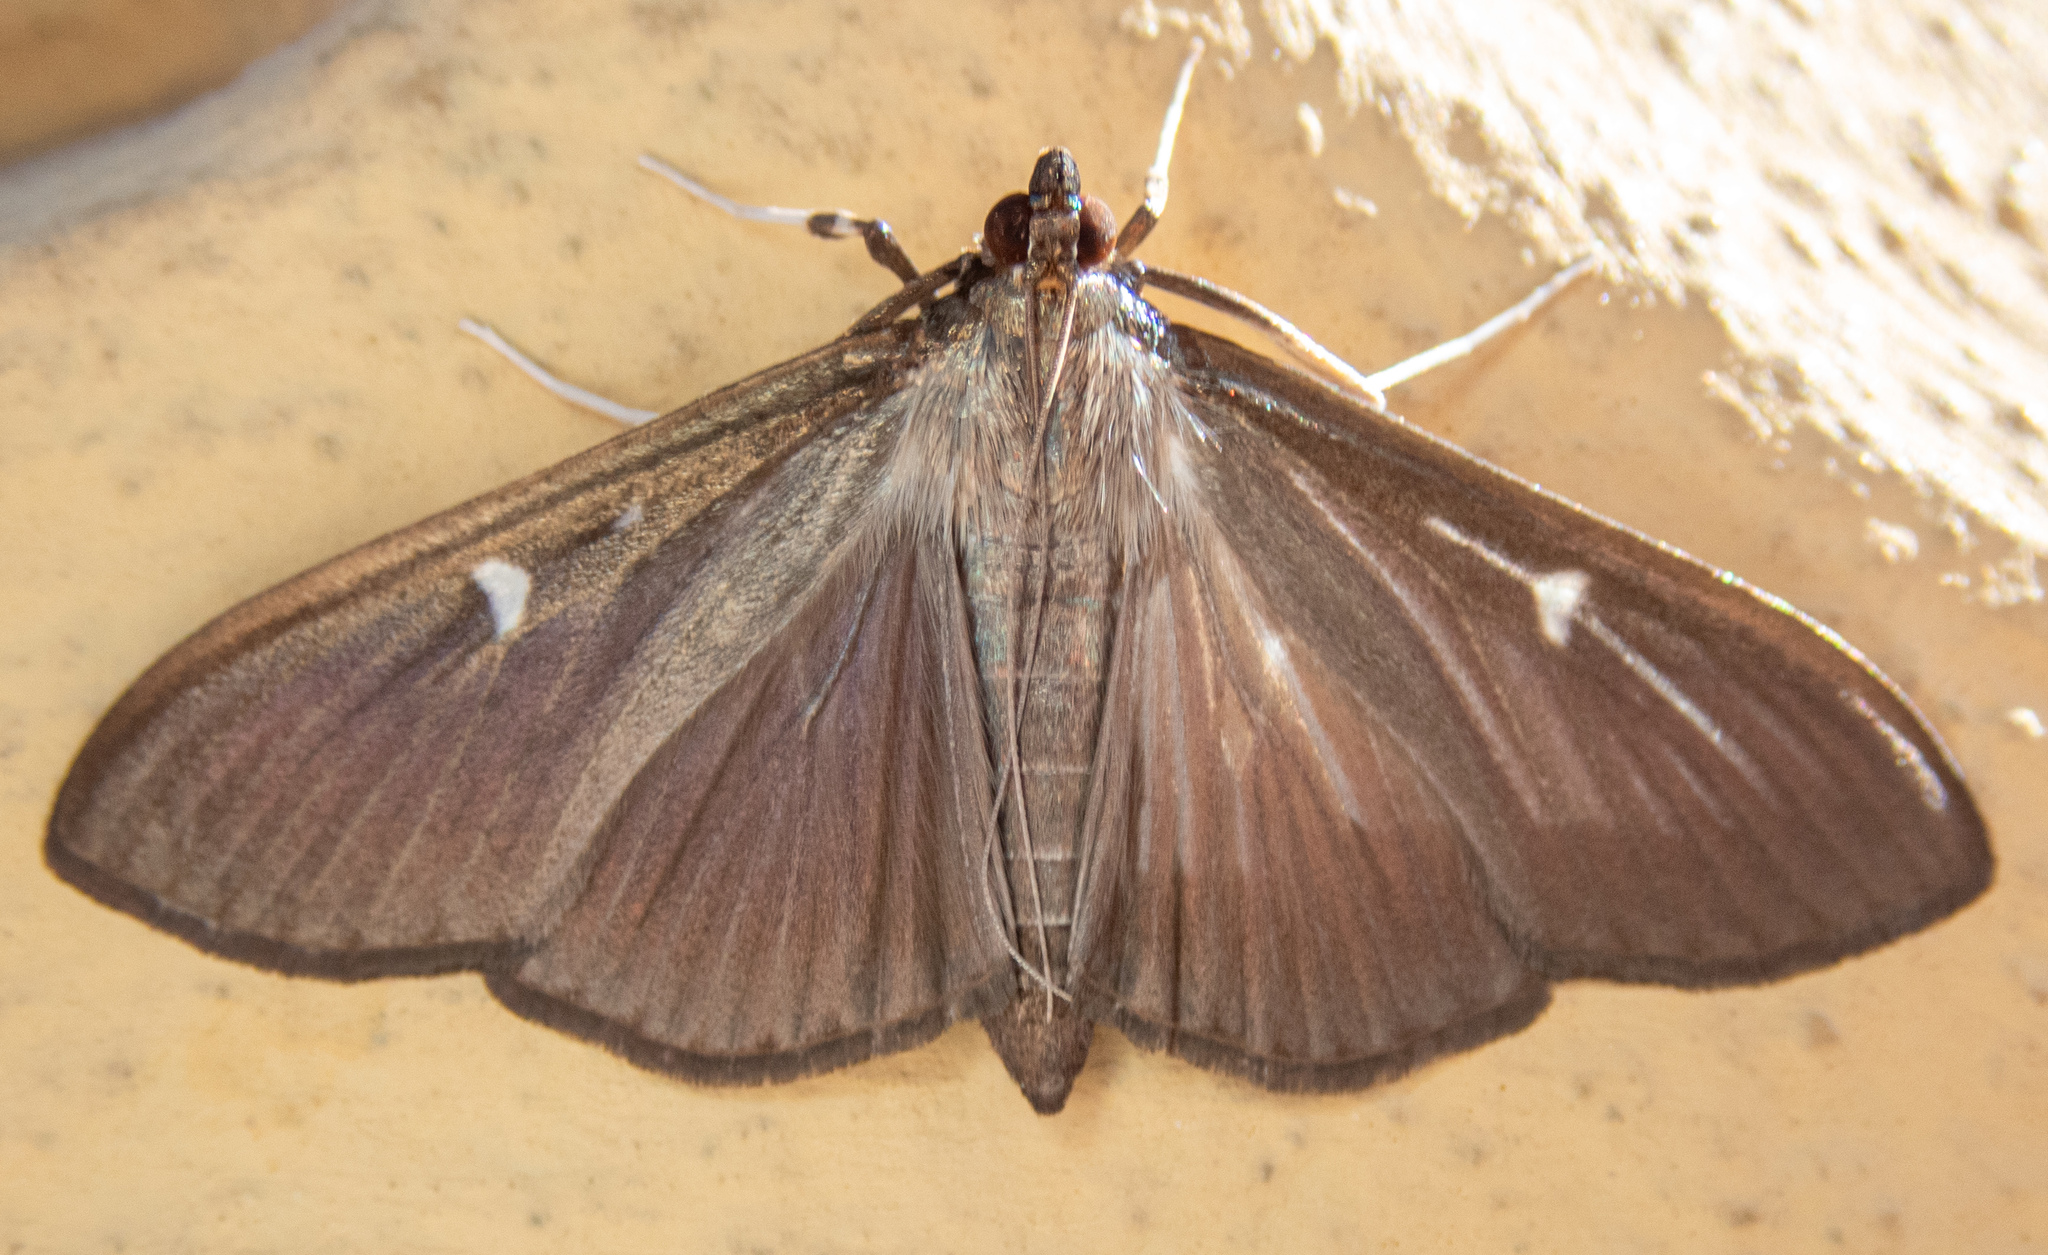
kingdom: Animalia
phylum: Arthropoda
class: Insecta
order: Lepidoptera
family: Crambidae
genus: Cydalima
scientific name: Cydalima perspectalis
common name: Box tree moth
